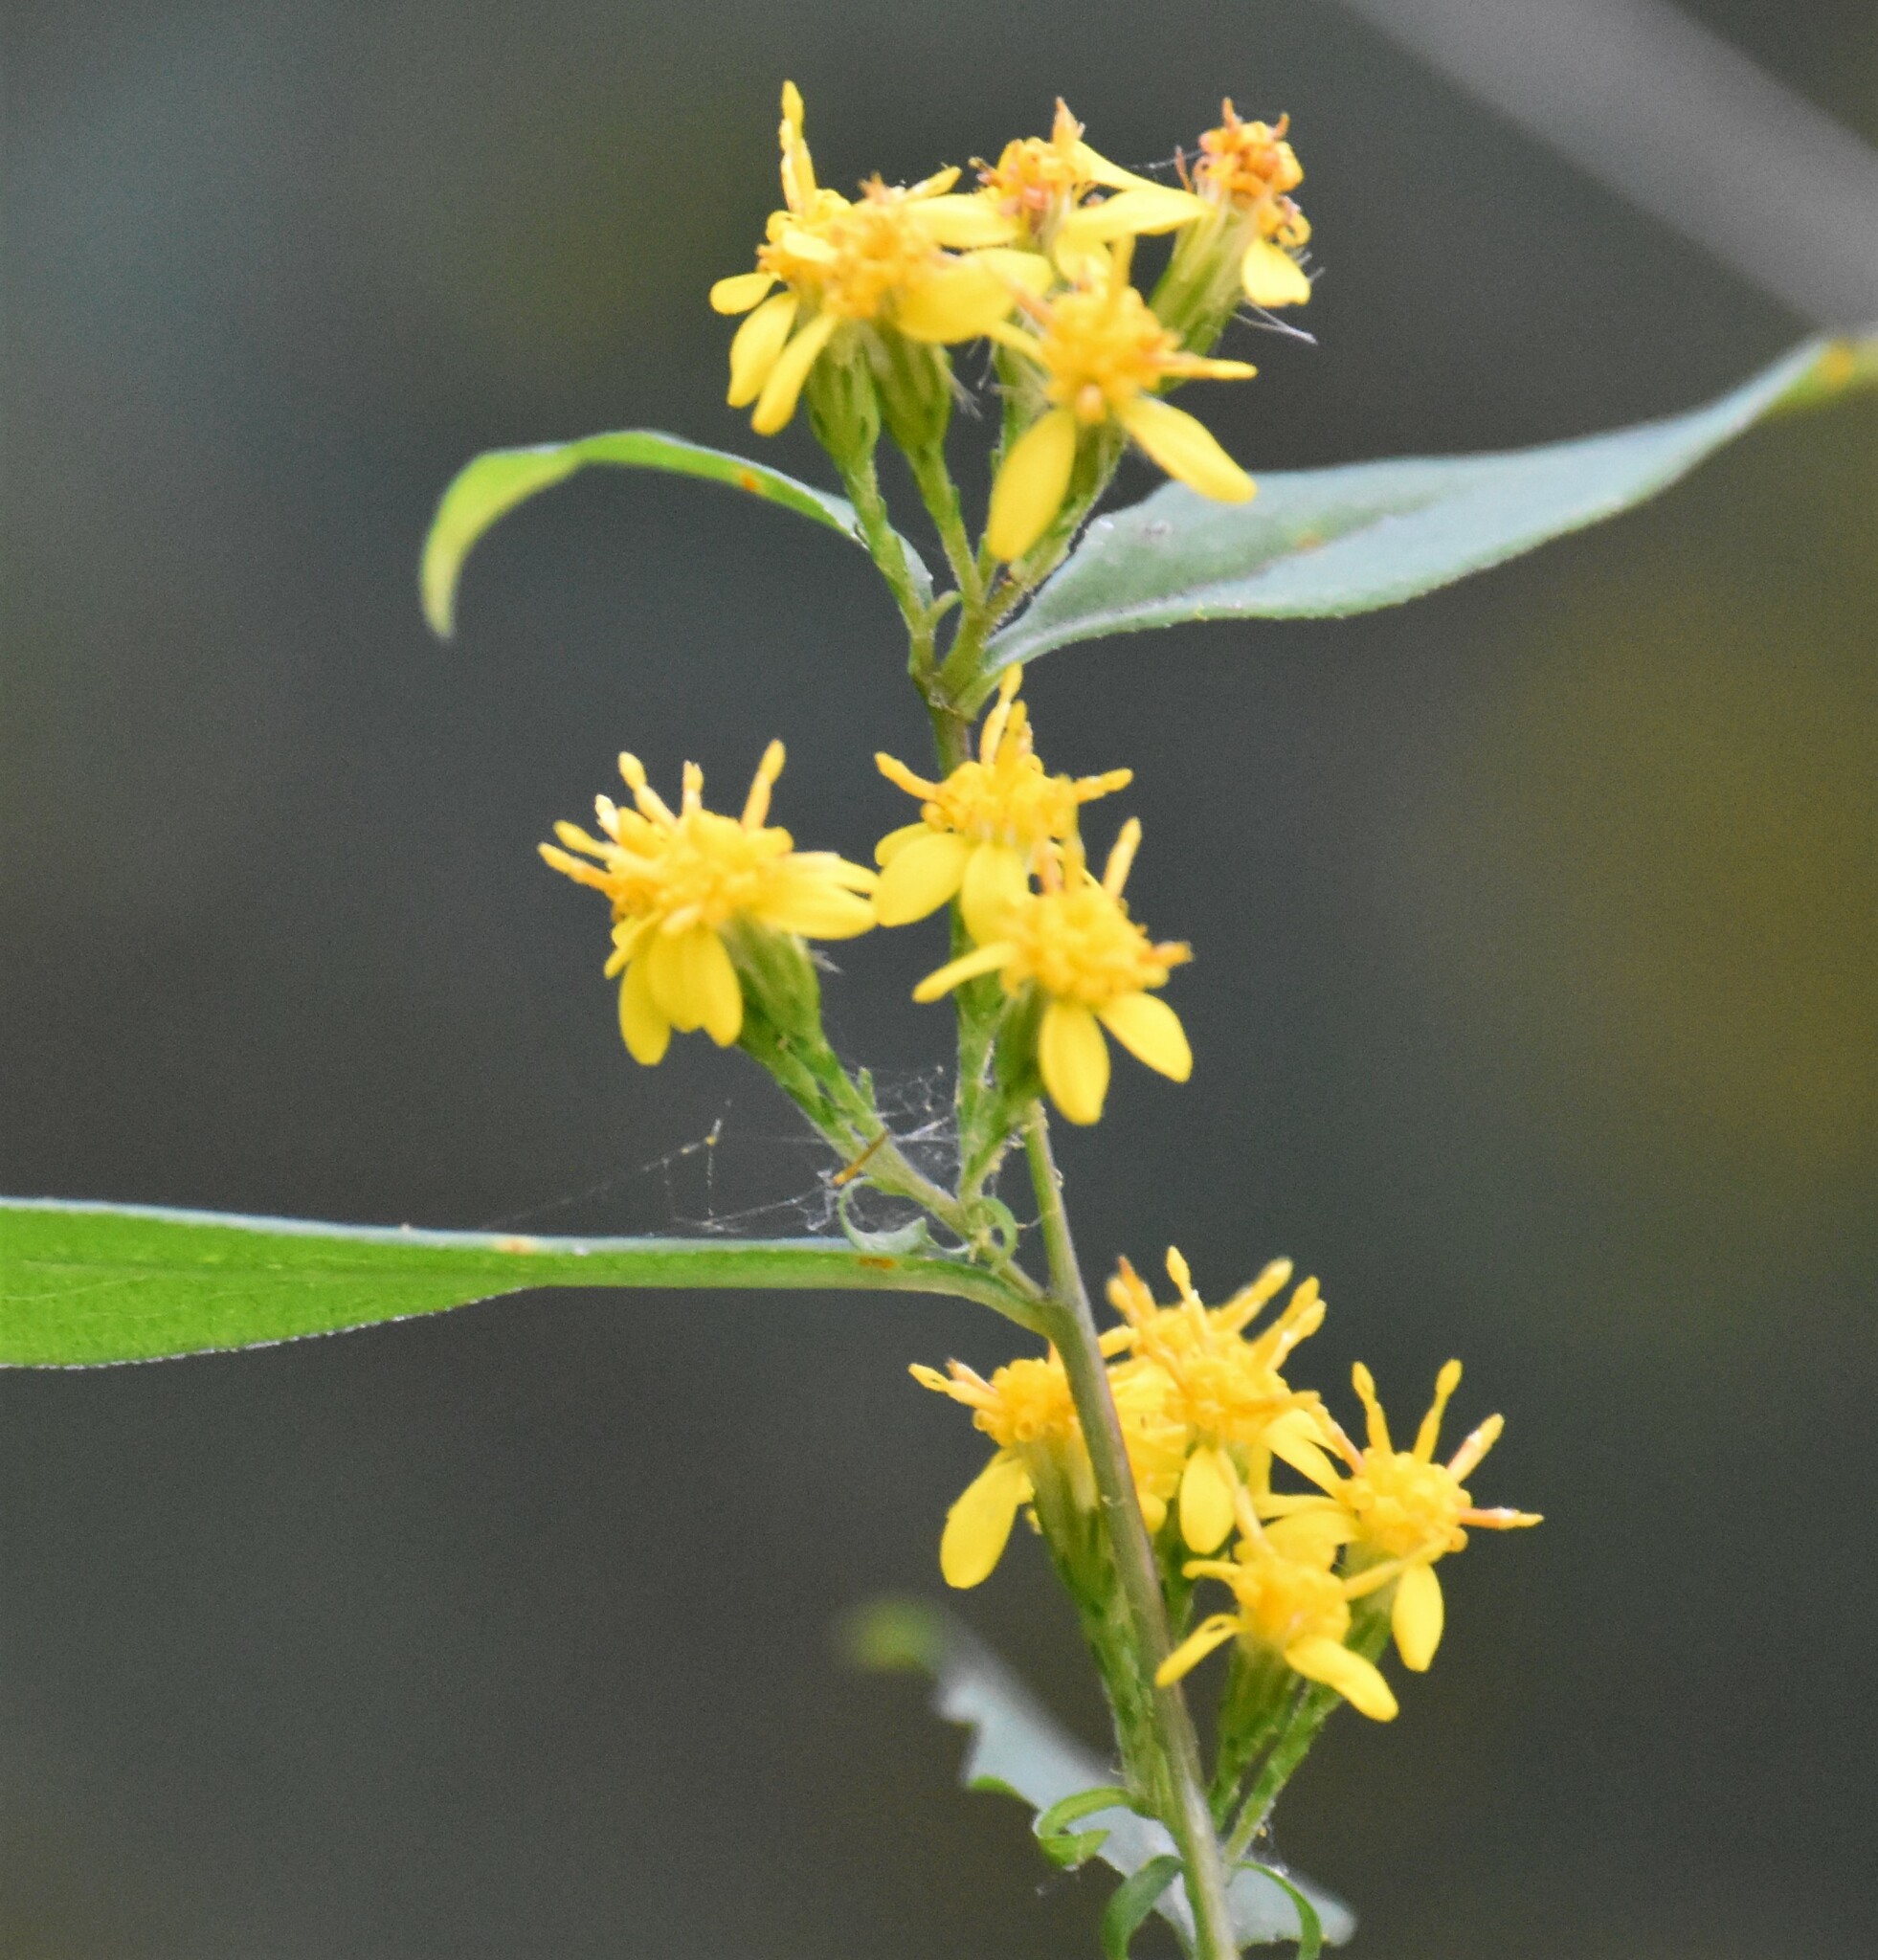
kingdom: Plantae
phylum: Tracheophyta
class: Magnoliopsida
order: Asterales
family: Asteraceae
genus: Solidago
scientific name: Solidago caesia
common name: Woodland goldenrod
